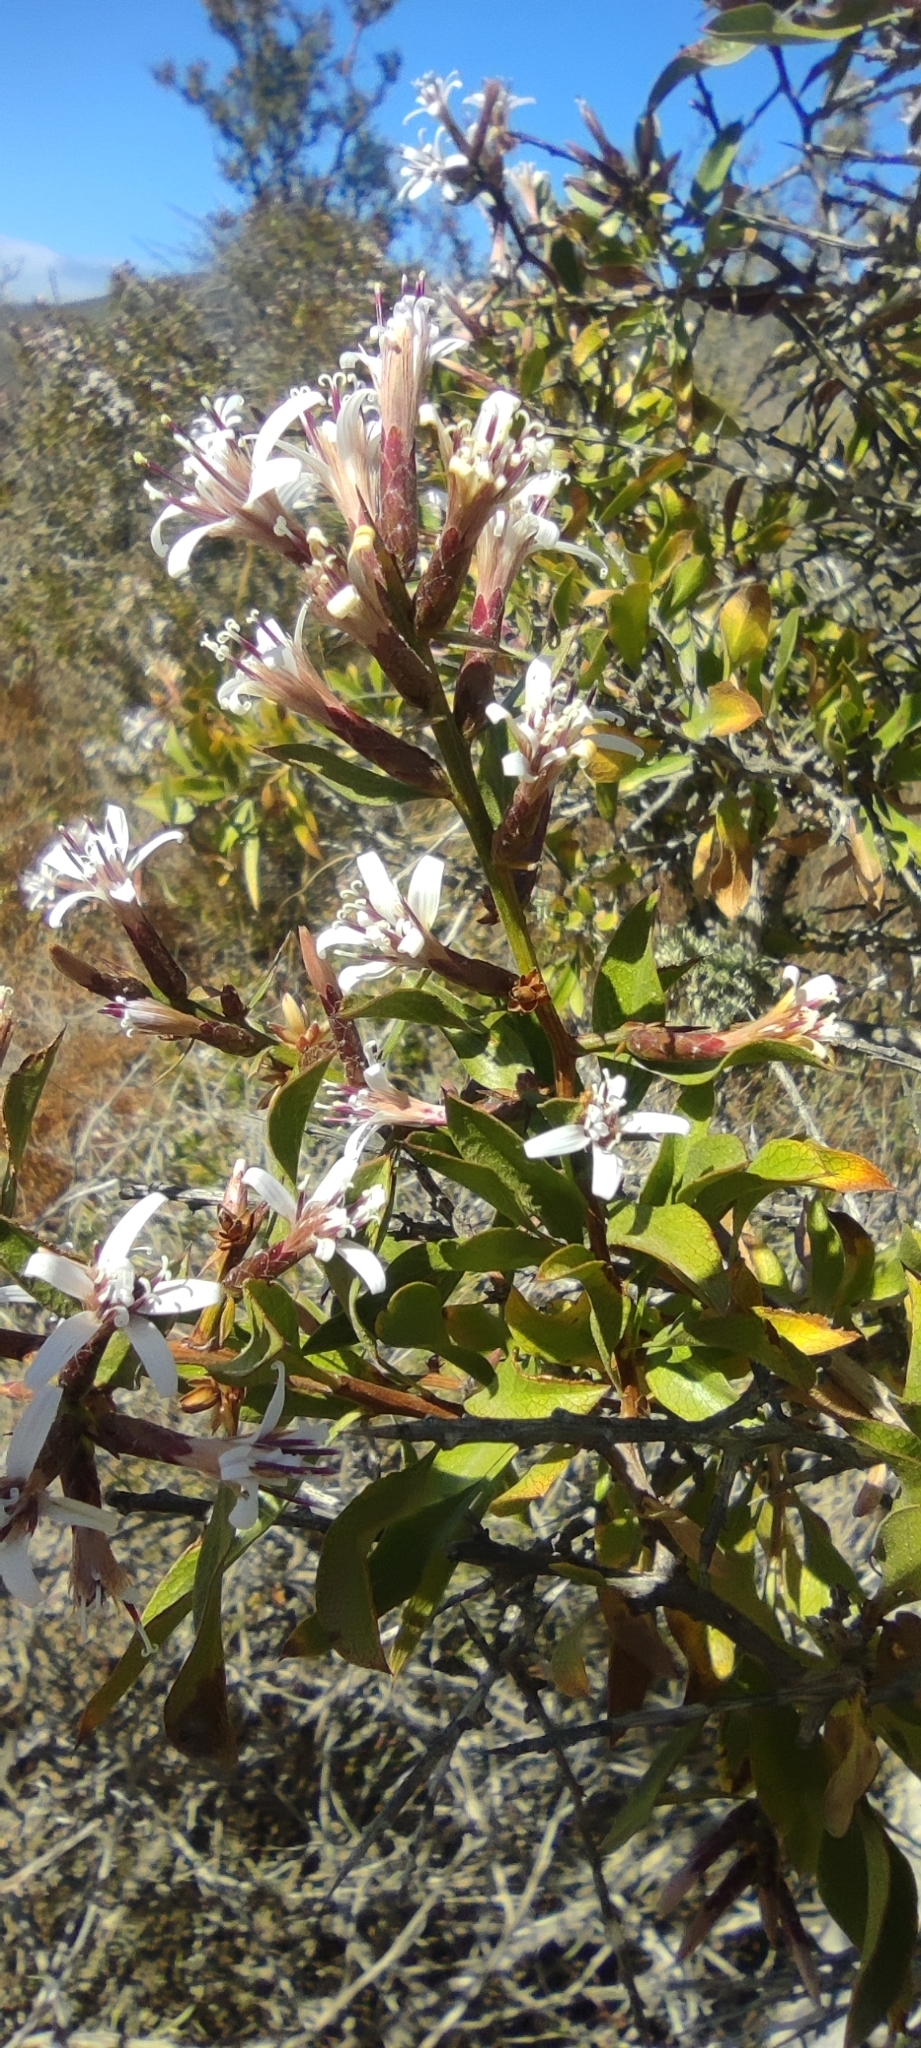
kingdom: Plantae
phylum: Tracheophyta
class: Magnoliopsida
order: Asterales
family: Asteraceae
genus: Proustia
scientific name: Proustia cuneifolia
